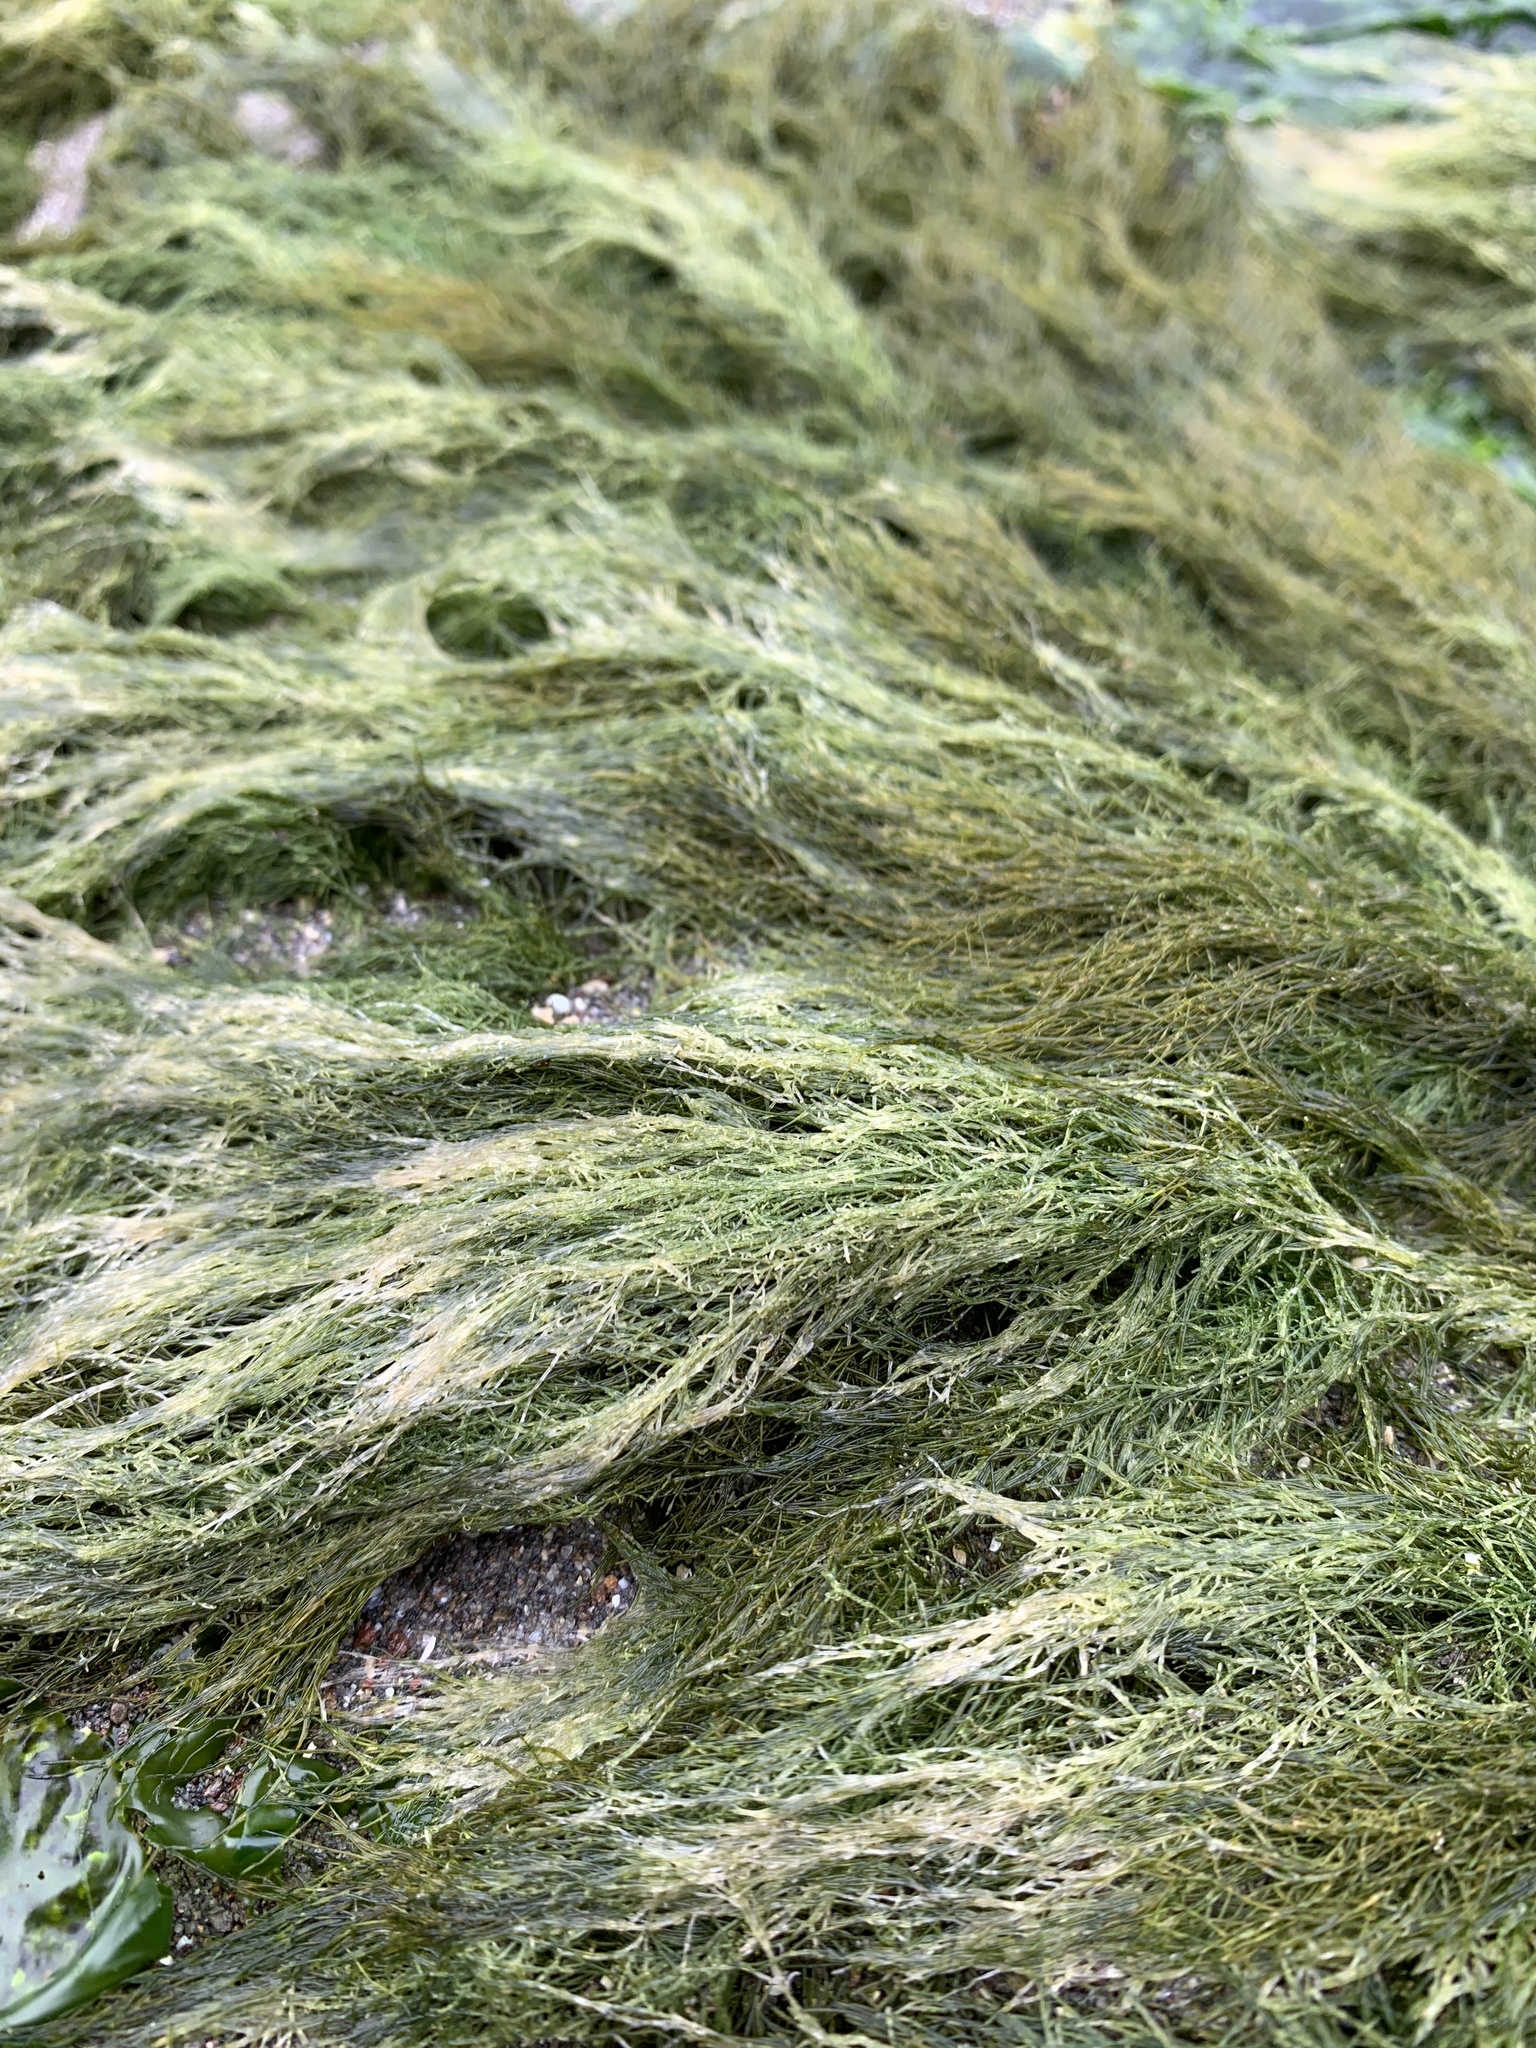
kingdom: Plantae
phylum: Chlorophyta
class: Ulvophyceae
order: Ulotrichales
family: Ulotrichaceae
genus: Acrosiphonia
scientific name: Acrosiphonia
